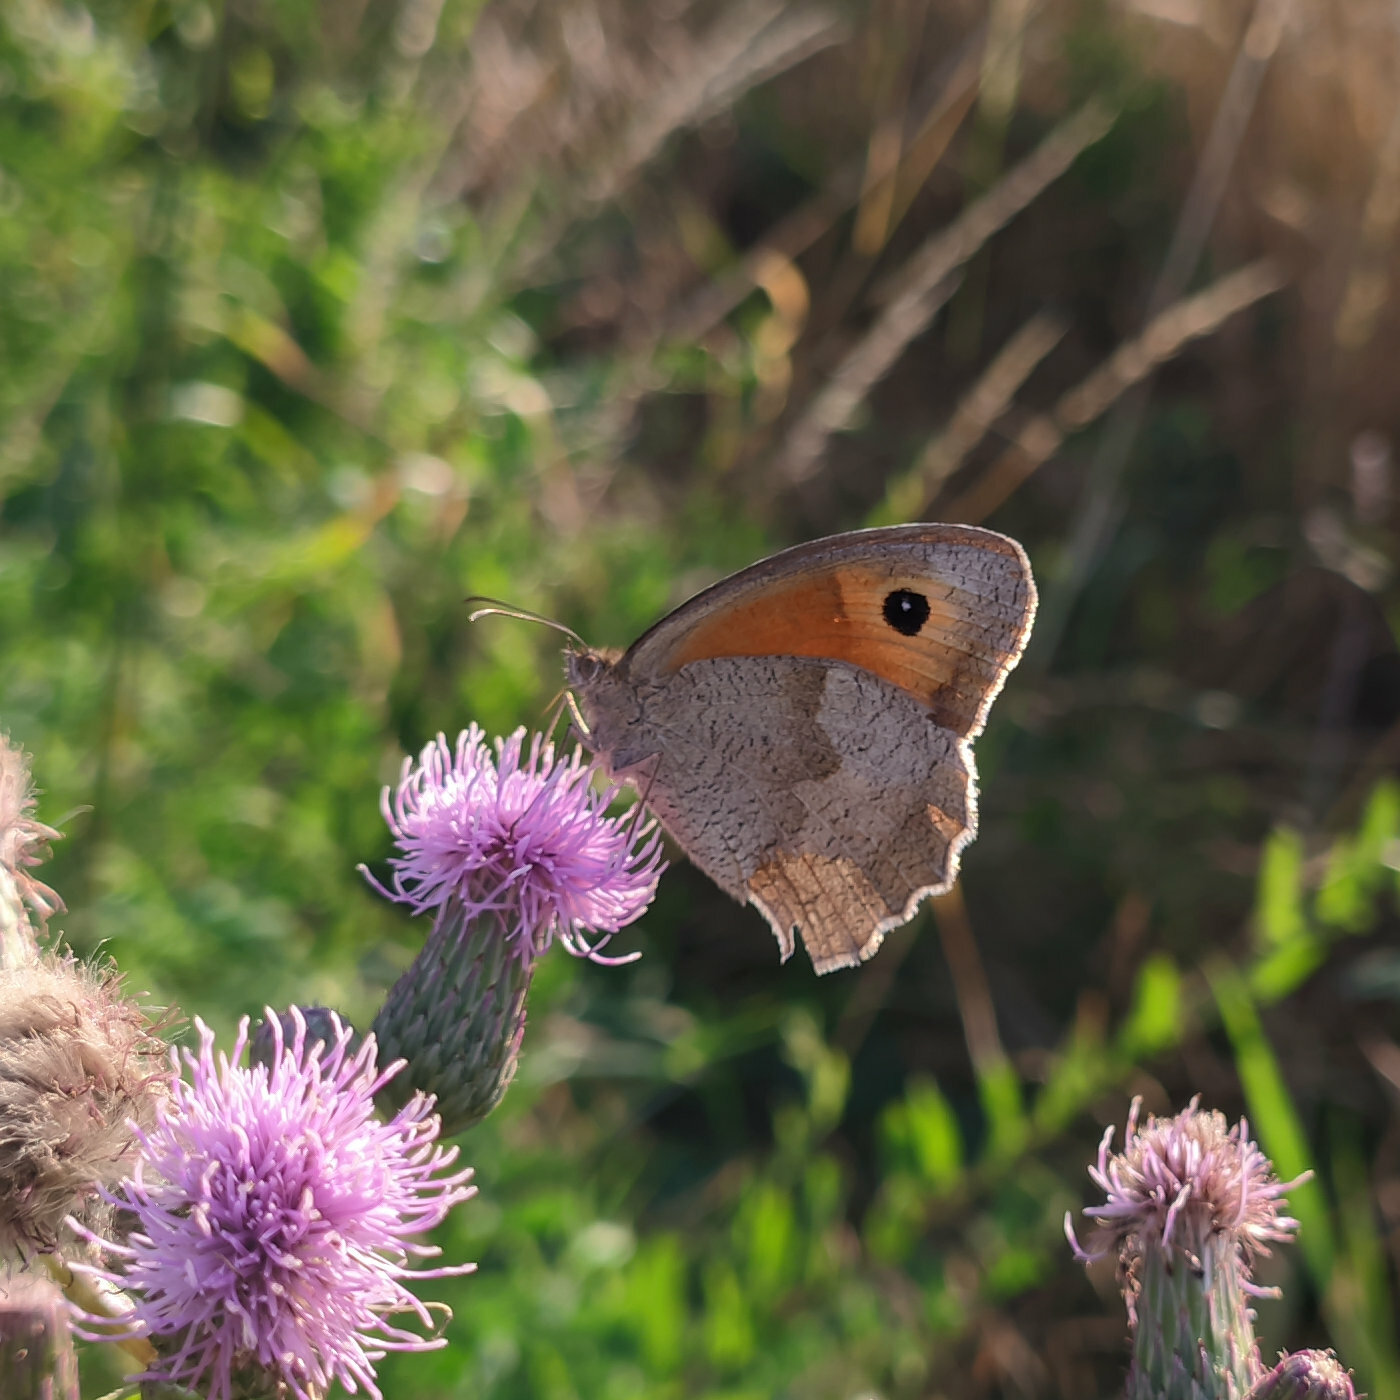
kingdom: Animalia
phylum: Arthropoda
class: Insecta
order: Lepidoptera
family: Nymphalidae
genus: Maniola
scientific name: Maniola jurtina
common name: Meadow brown
